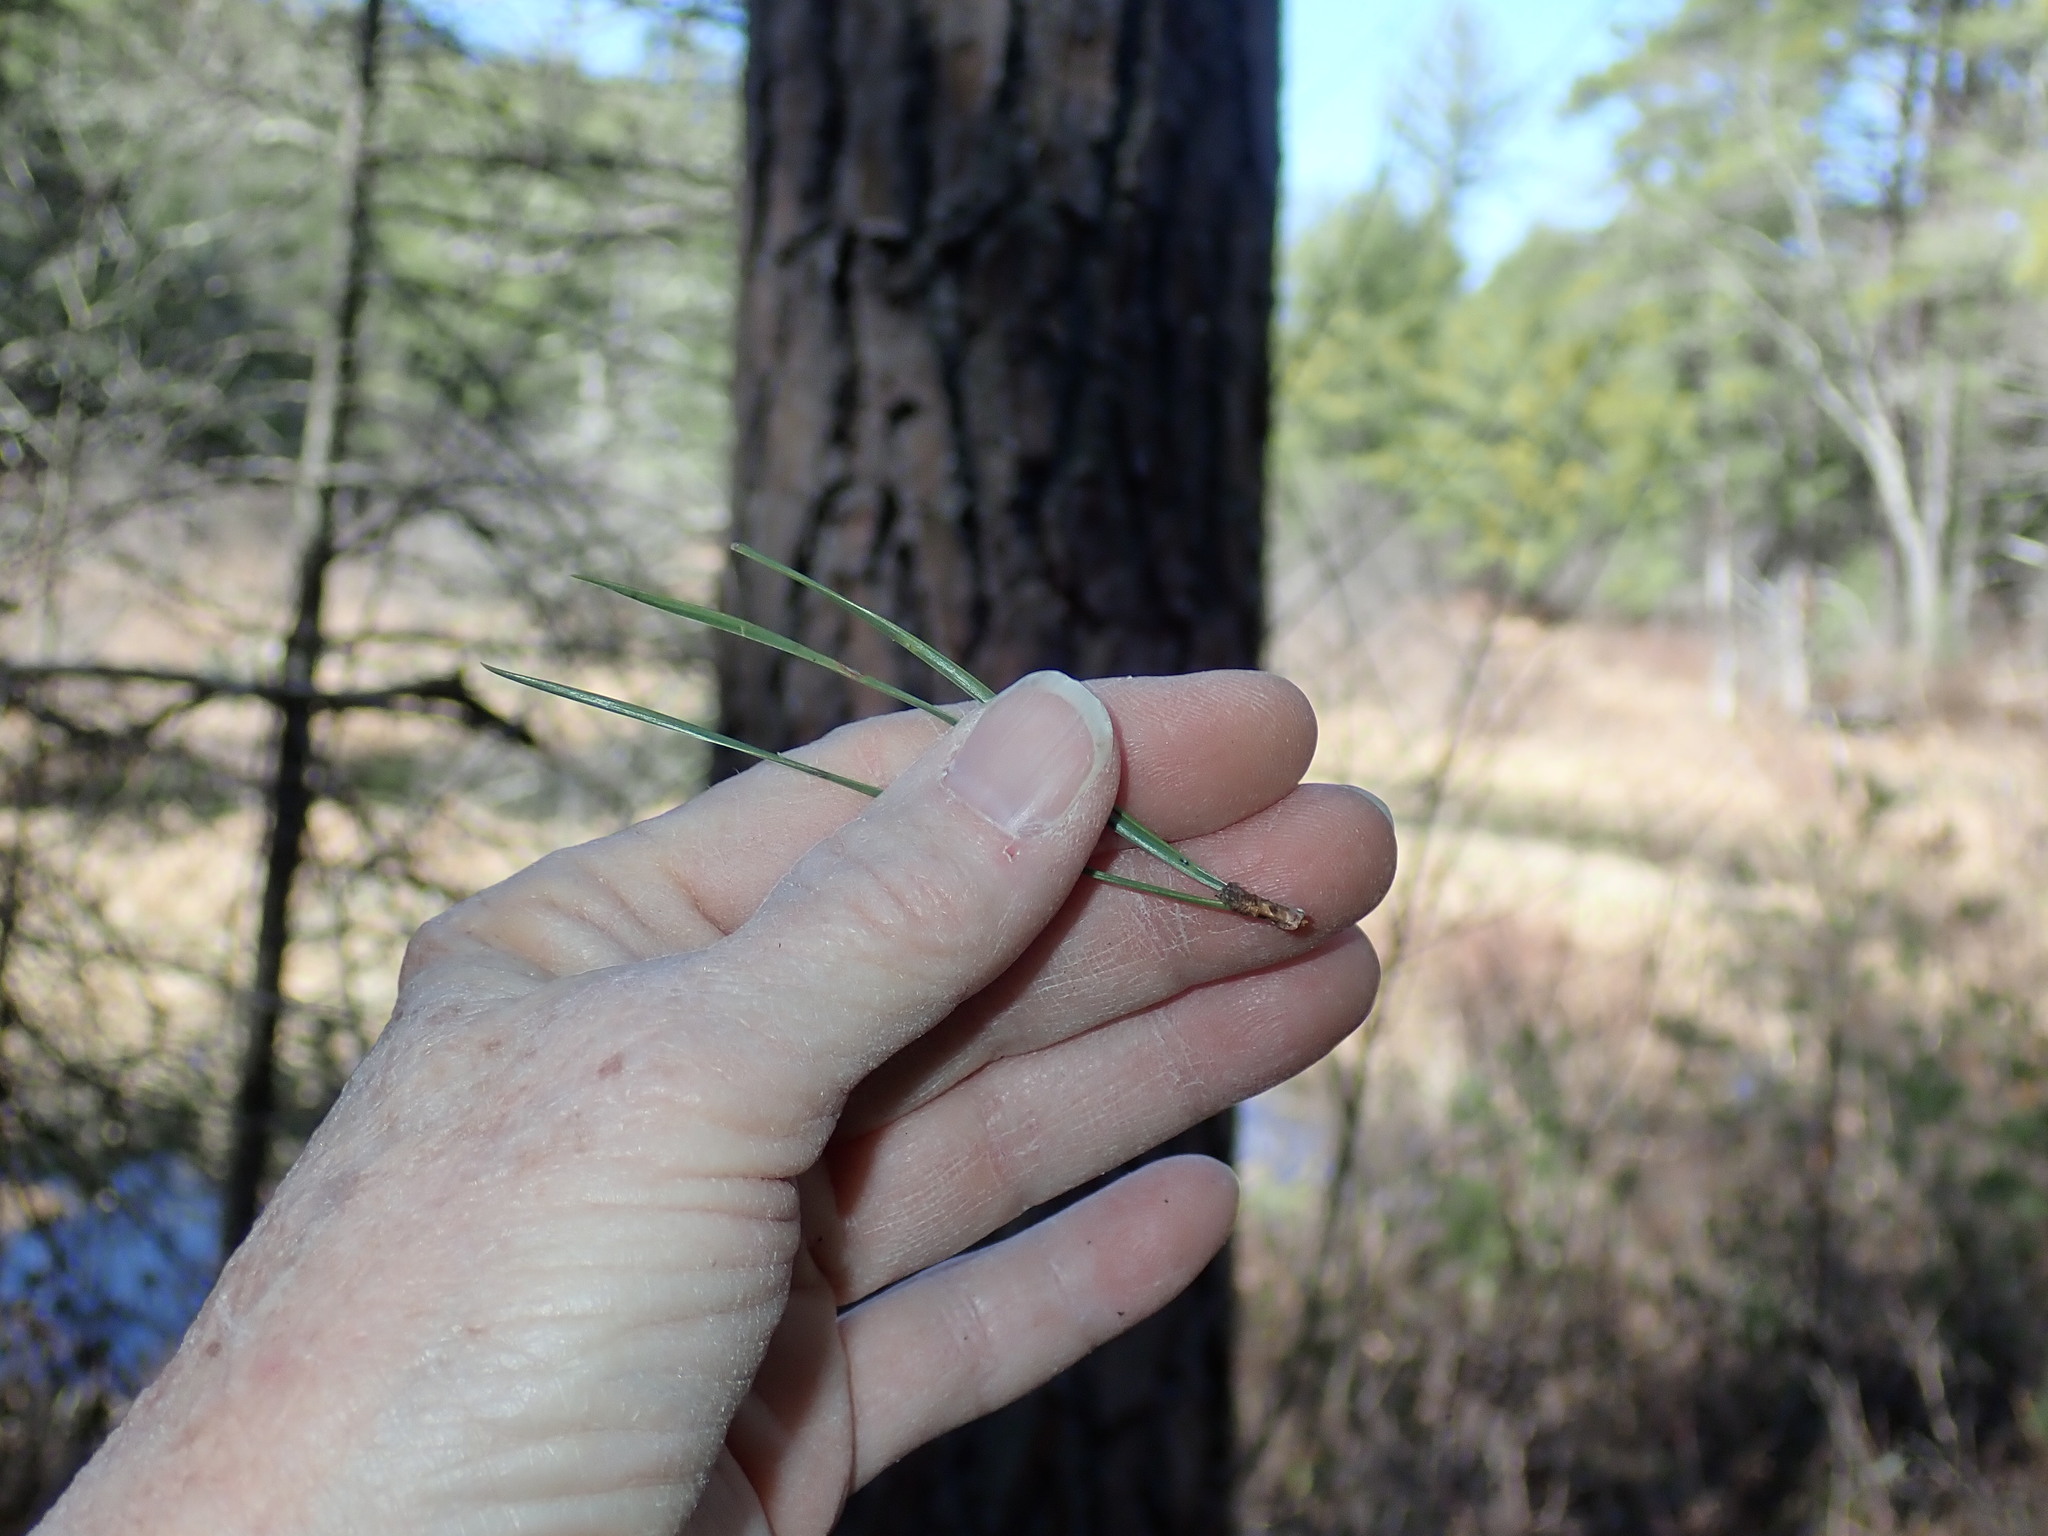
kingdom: Plantae
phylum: Tracheophyta
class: Pinopsida
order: Pinales
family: Pinaceae
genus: Pinus
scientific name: Pinus rigida
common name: Pitch pine
